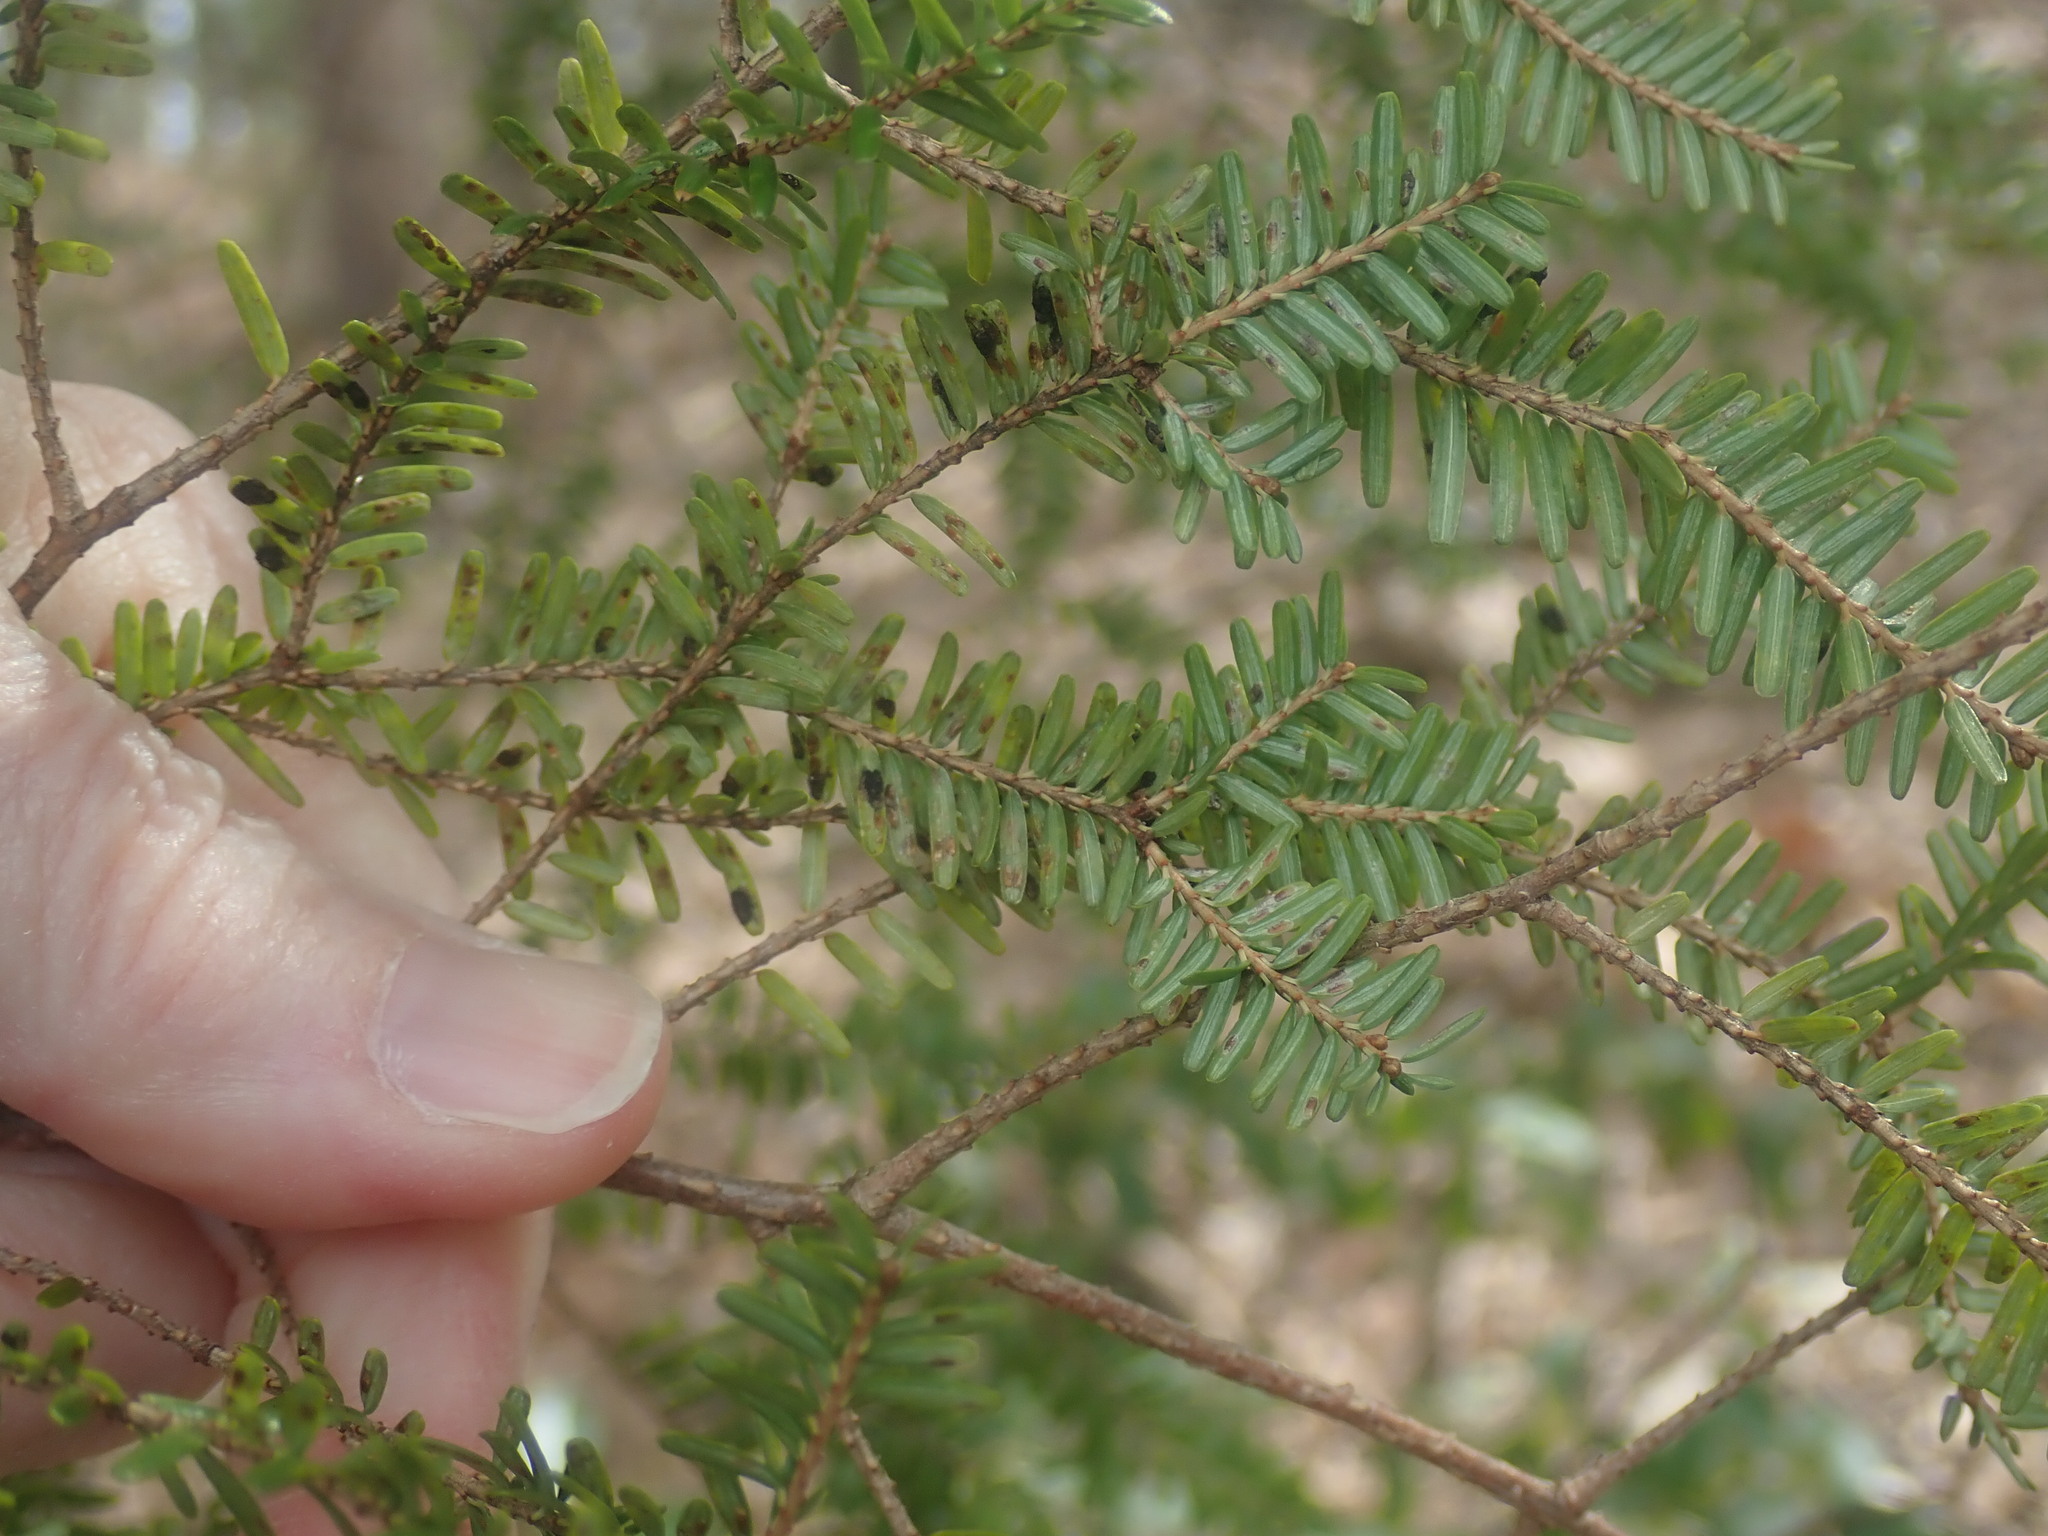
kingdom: Plantae
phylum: Tracheophyta
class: Pinopsida
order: Pinales
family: Pinaceae
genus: Tsuga
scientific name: Tsuga canadensis
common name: Eastern hemlock
